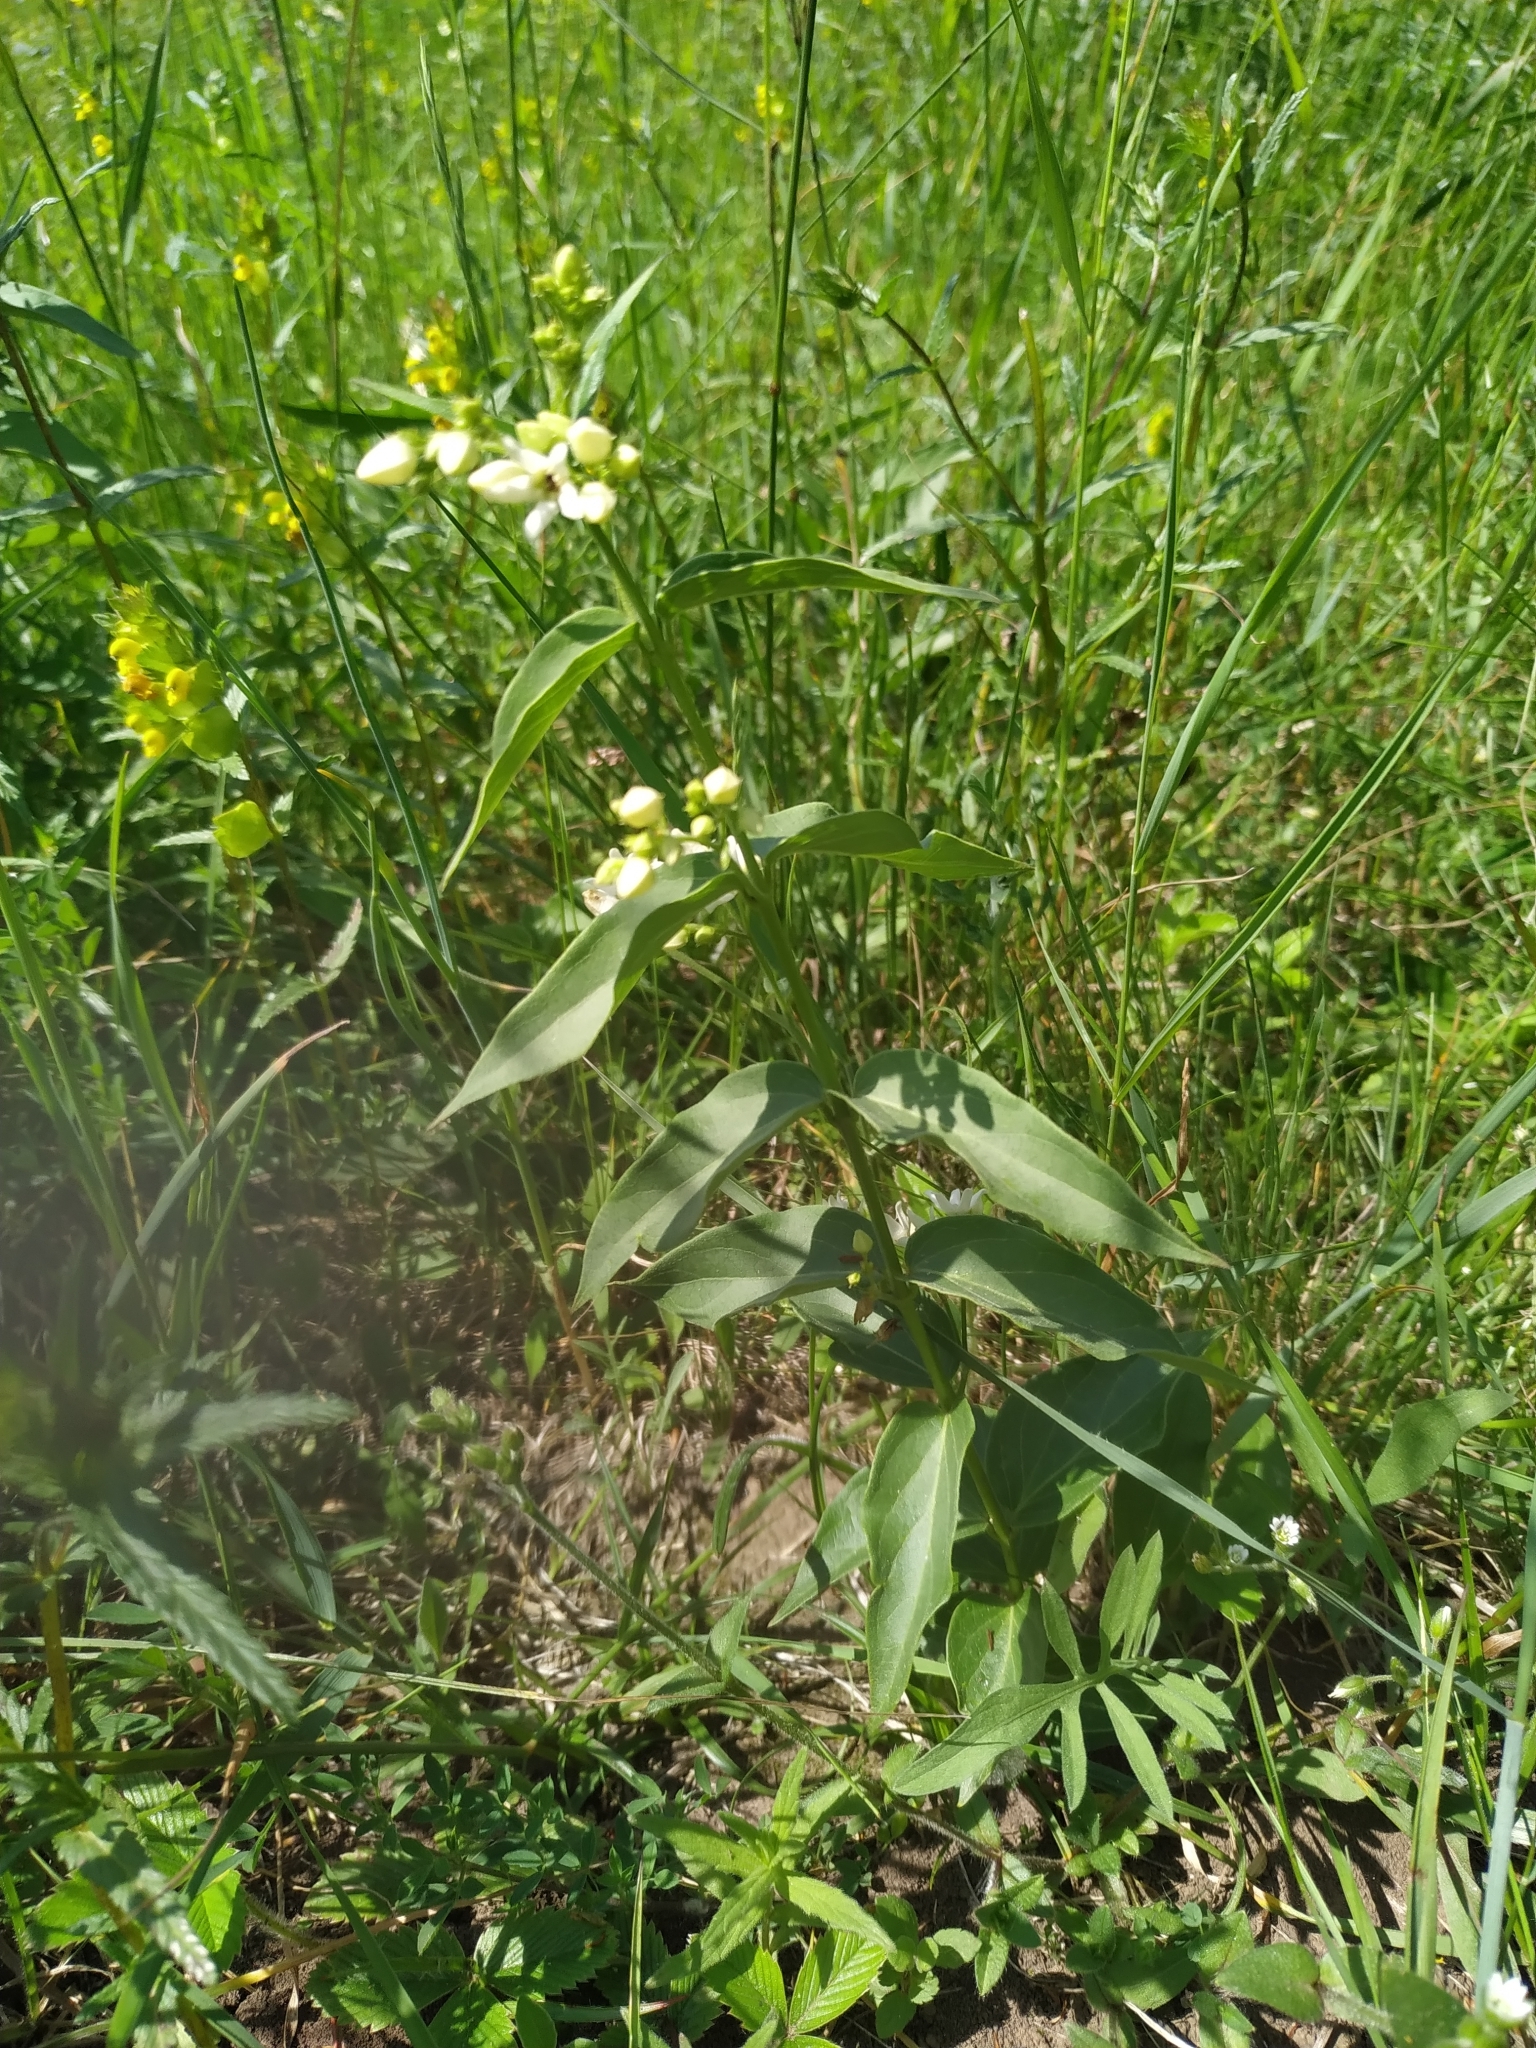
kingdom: Plantae
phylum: Tracheophyta
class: Magnoliopsida
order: Gentianales
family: Apocynaceae
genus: Vincetoxicum
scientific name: Vincetoxicum hirundinaria
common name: White swallowwort
